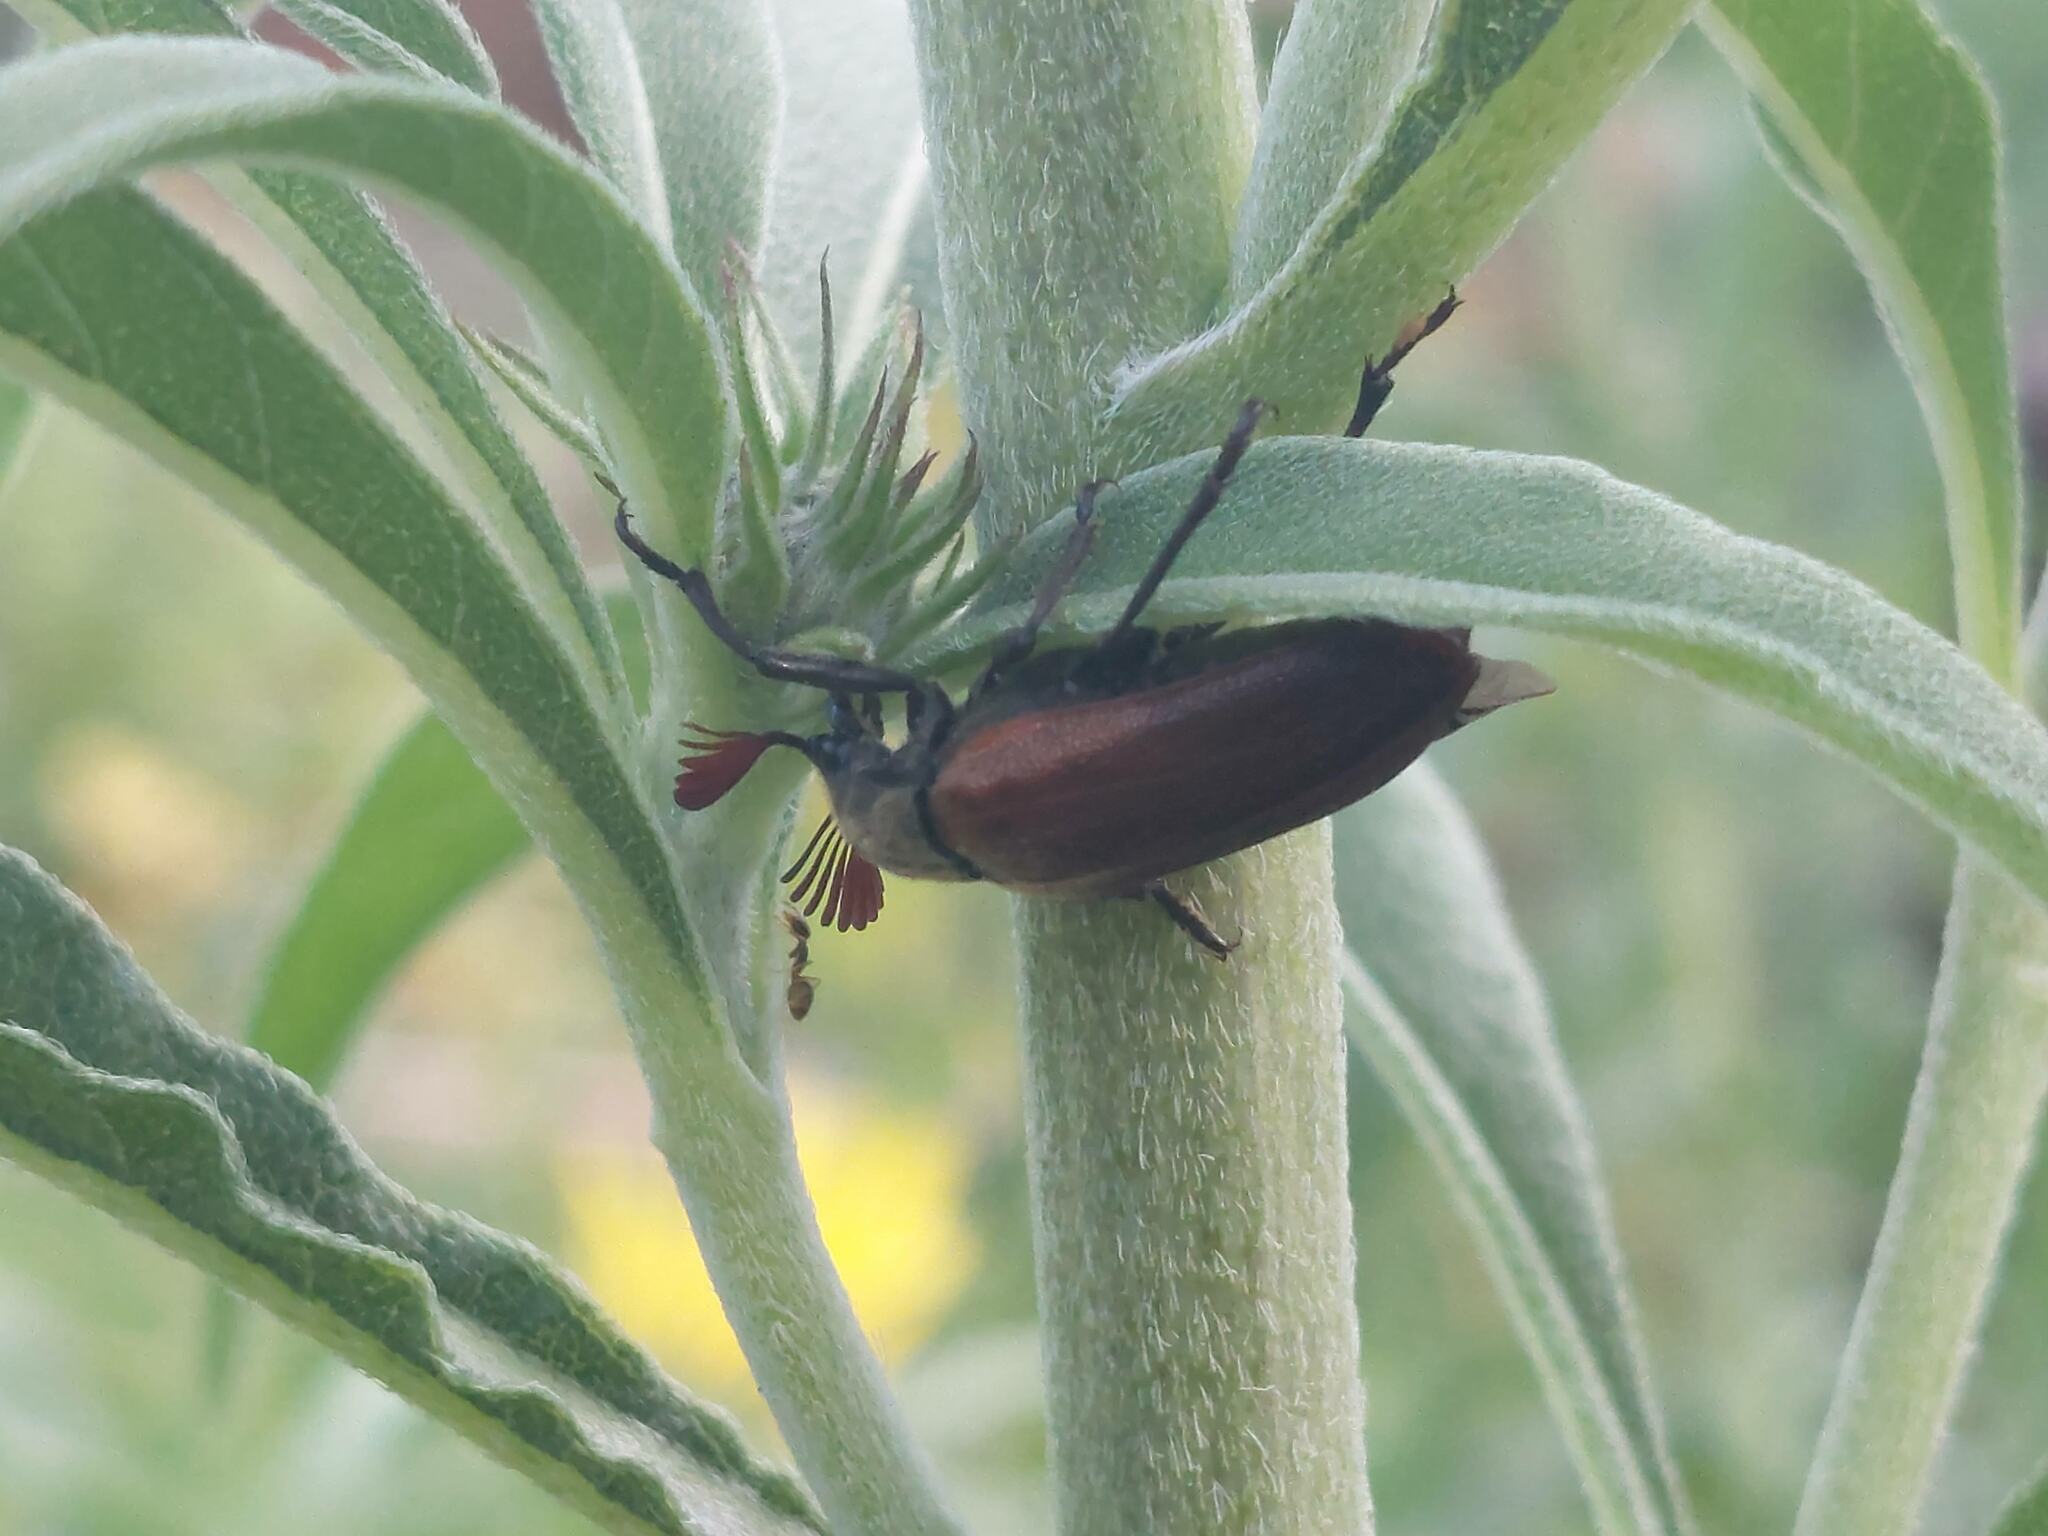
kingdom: Animalia
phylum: Arthropoda
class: Insecta
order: Coleoptera
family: Rhipiceridae
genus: Sandalus
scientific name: Sandalus niger
